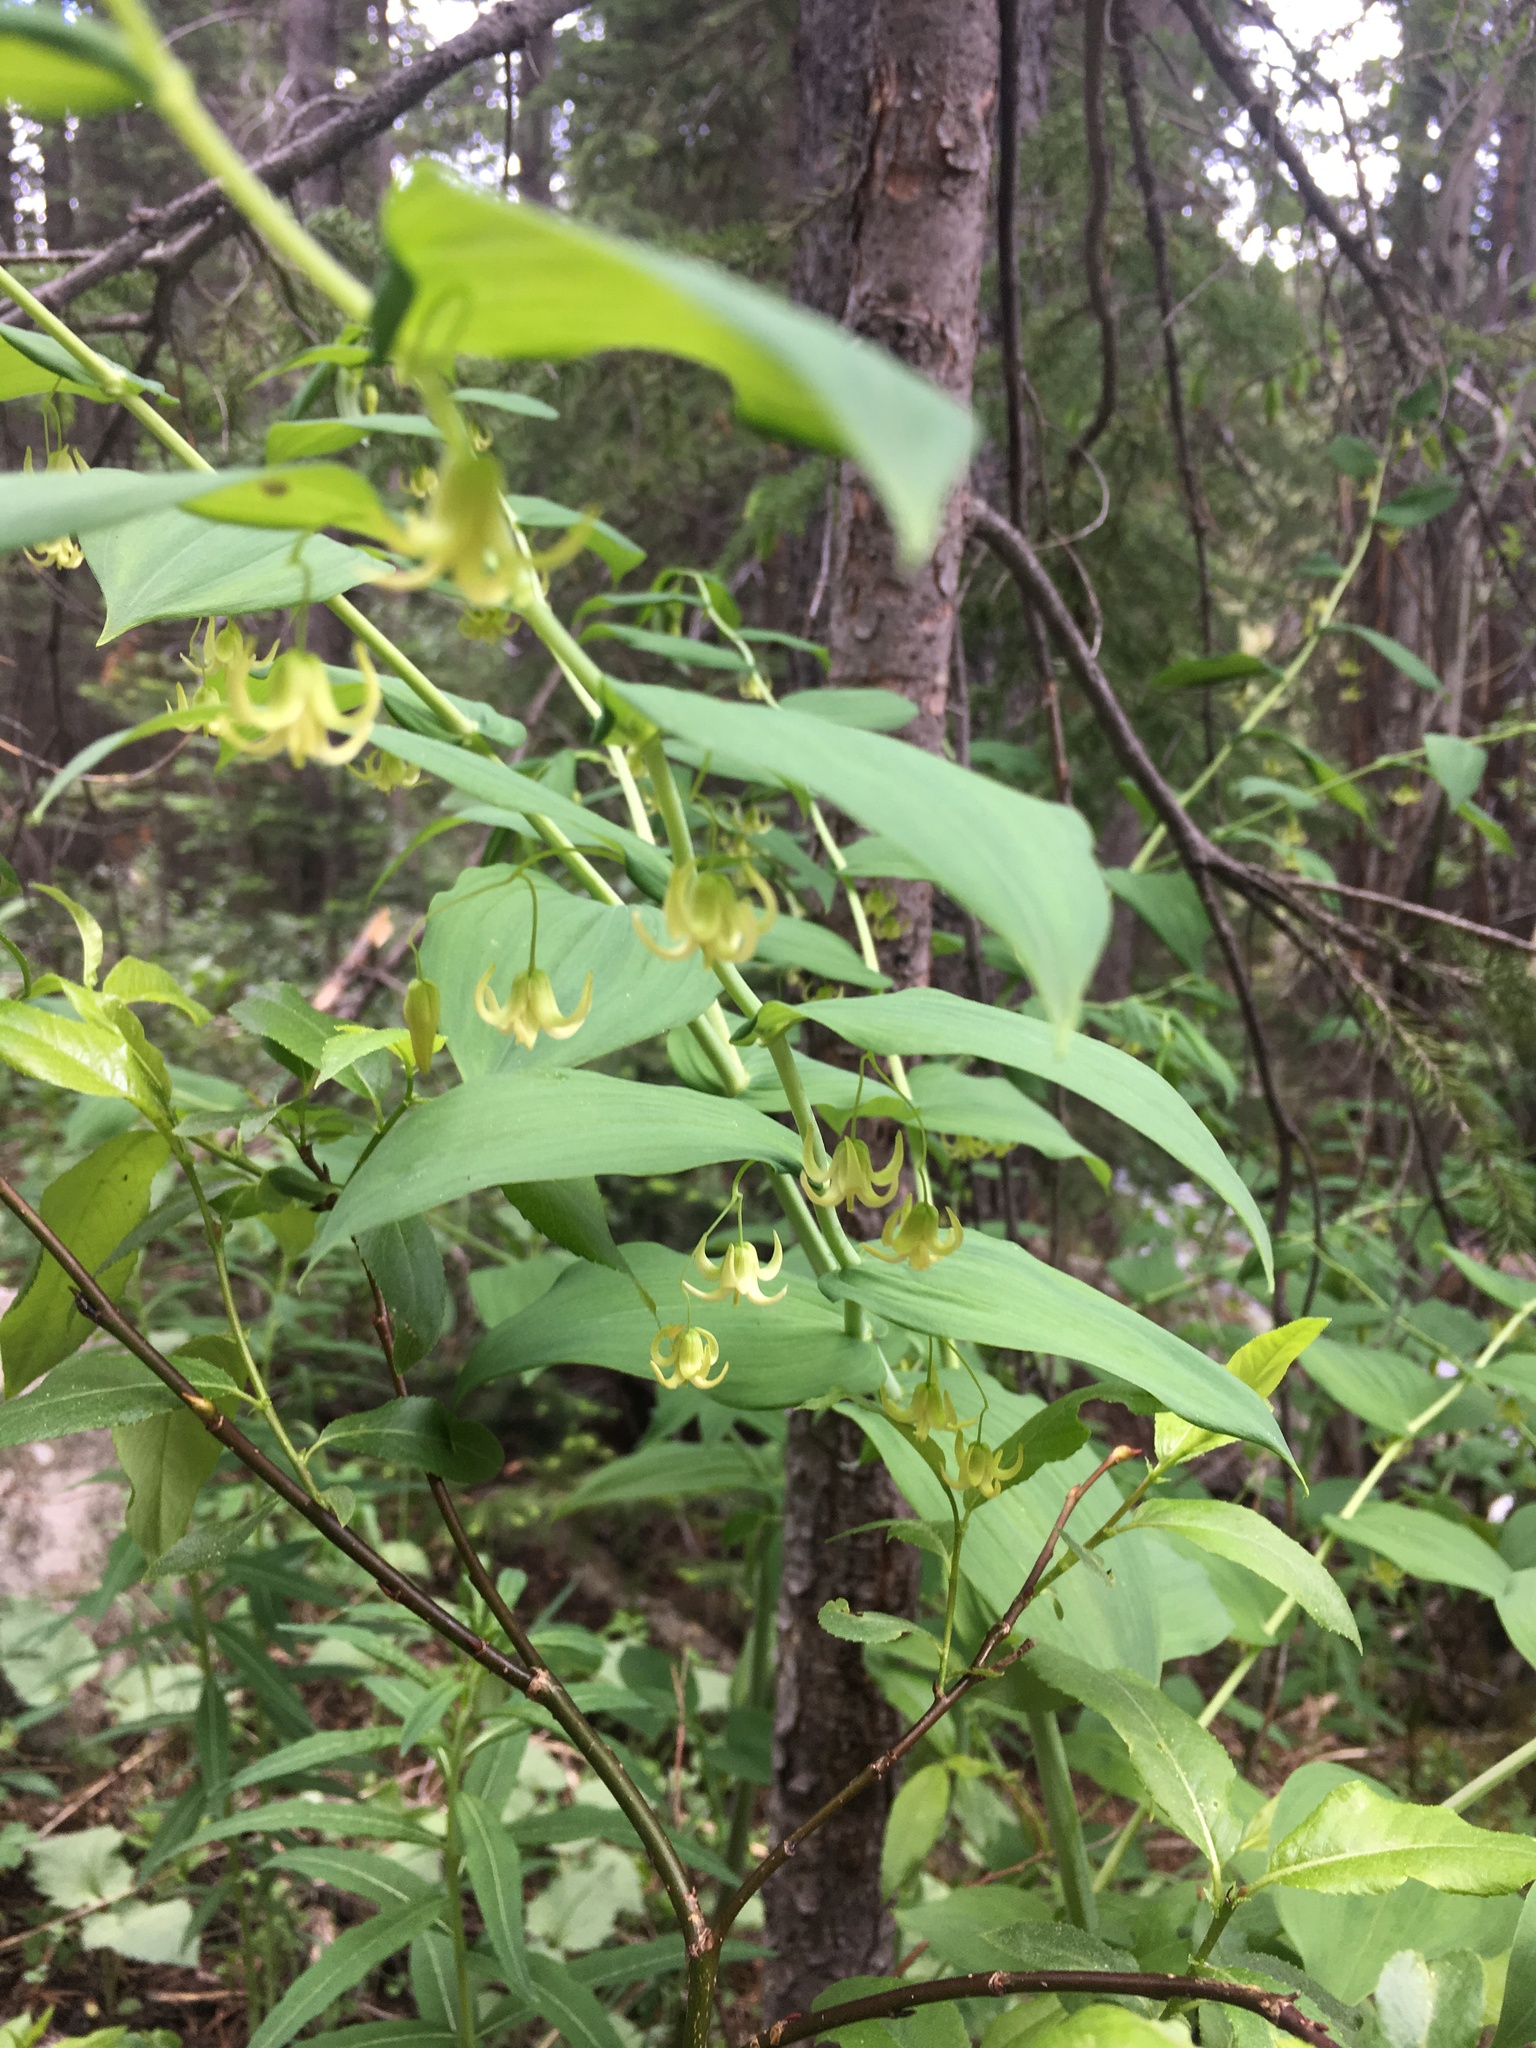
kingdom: Plantae
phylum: Tracheophyta
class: Liliopsida
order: Liliales
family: Liliaceae
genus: Streptopus
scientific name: Streptopus amplexifolius
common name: Clasp twisted stalk
